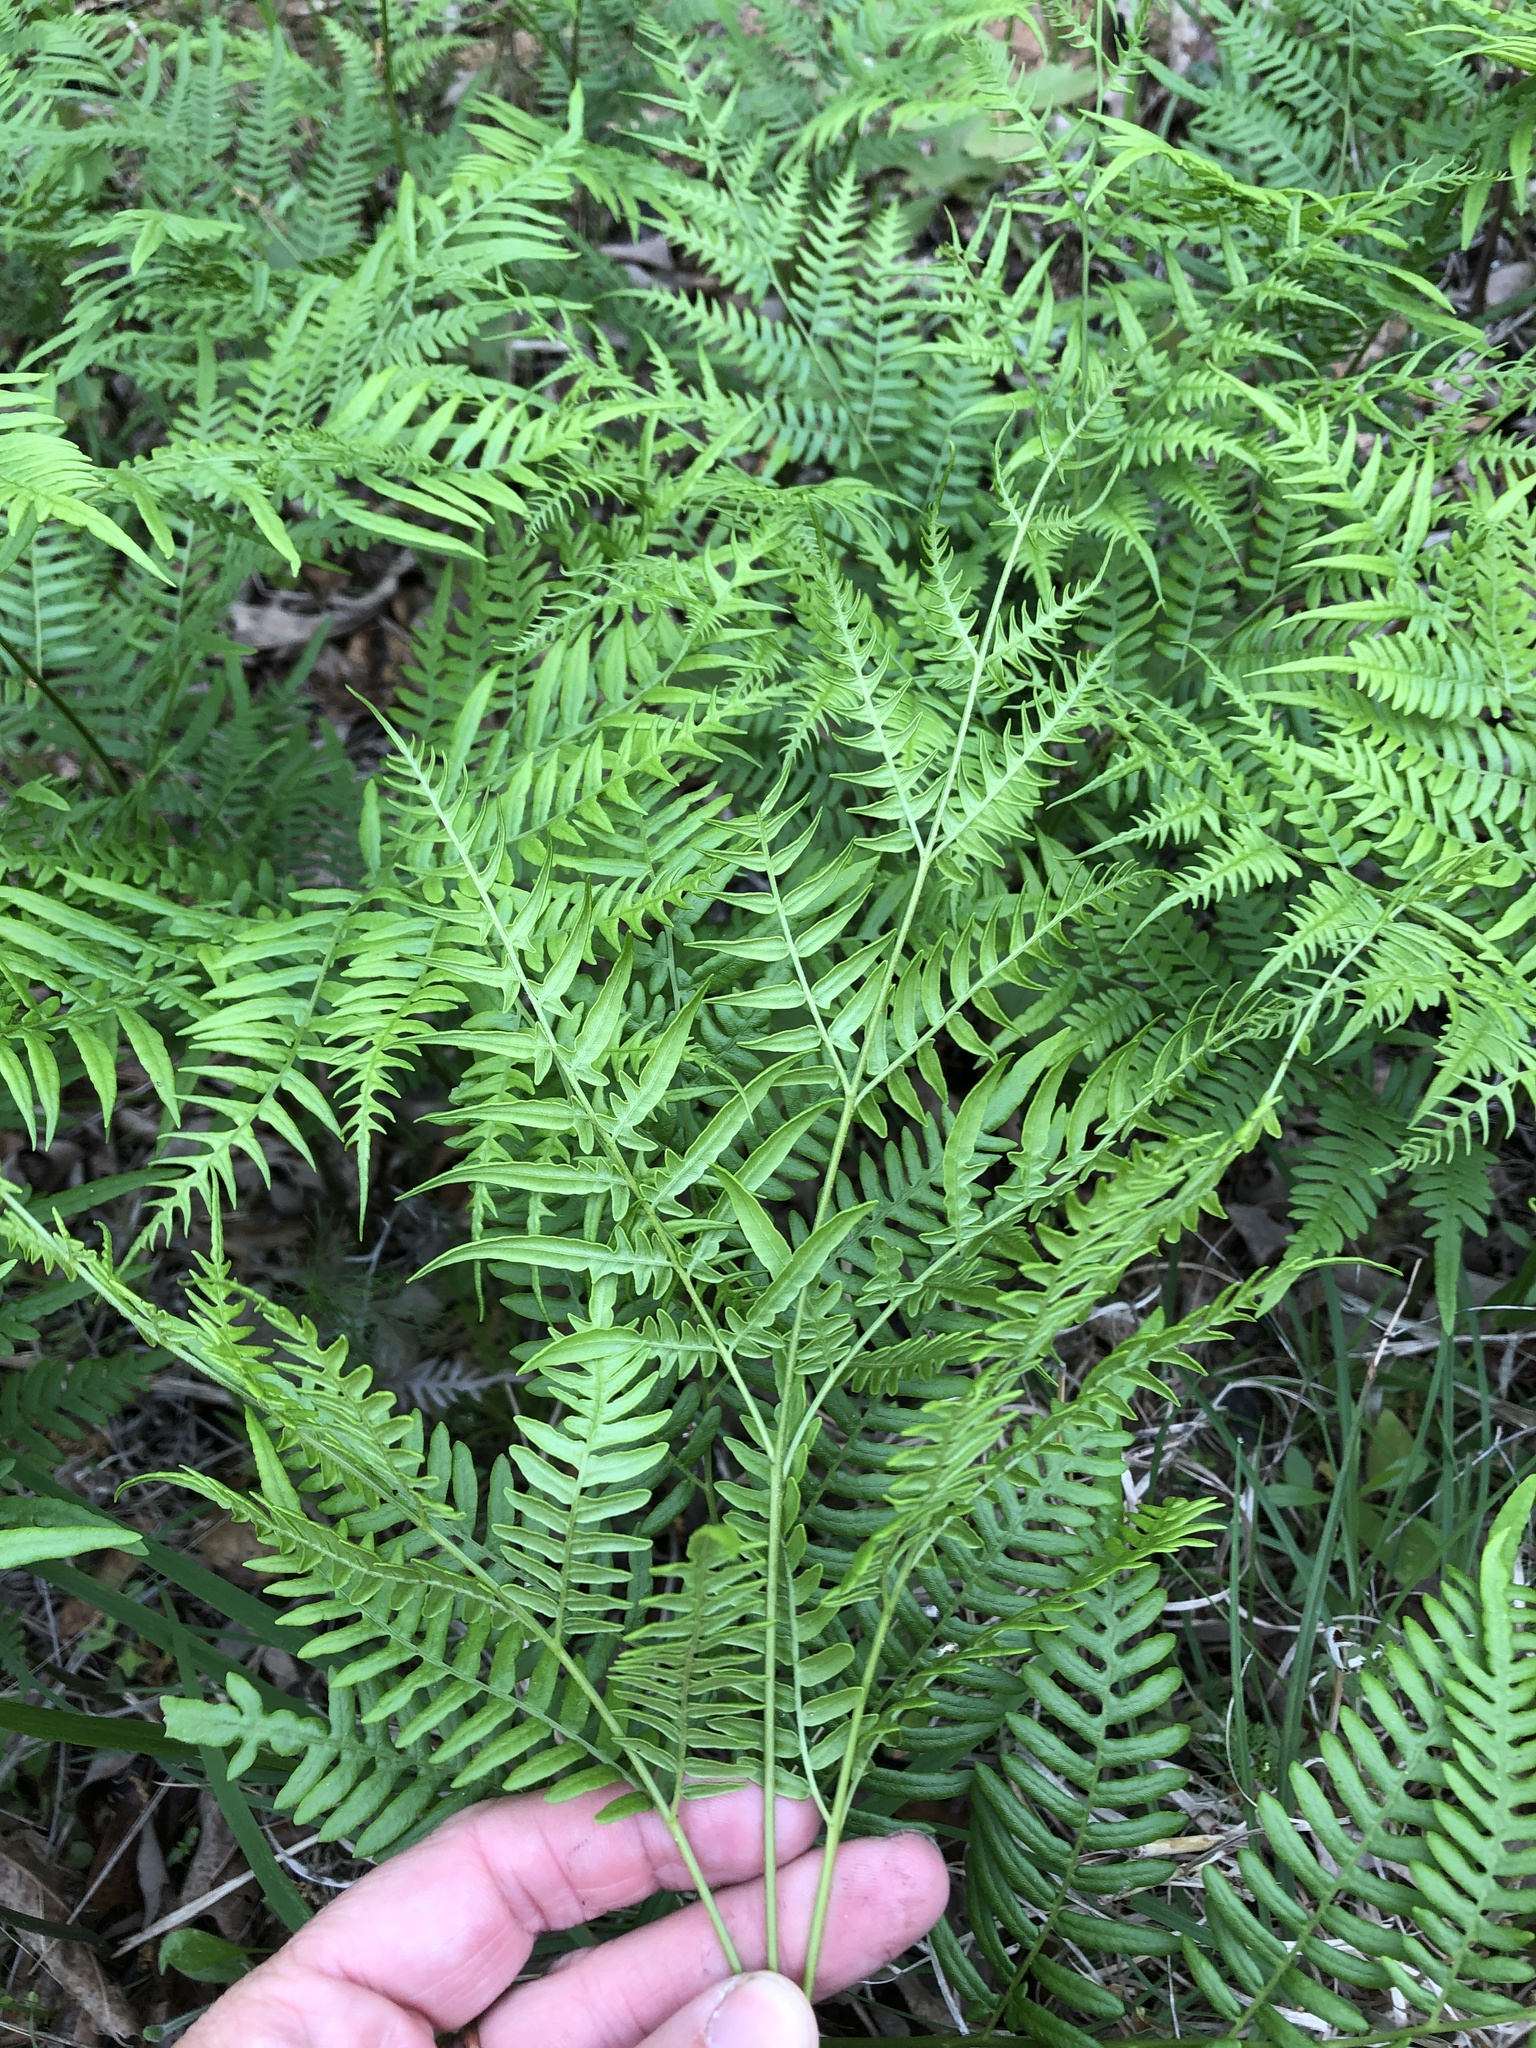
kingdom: Plantae
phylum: Tracheophyta
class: Polypodiopsida
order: Polypodiales
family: Dennstaedtiaceae
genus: Pteridium
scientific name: Pteridium aquilinum
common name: Bracken
